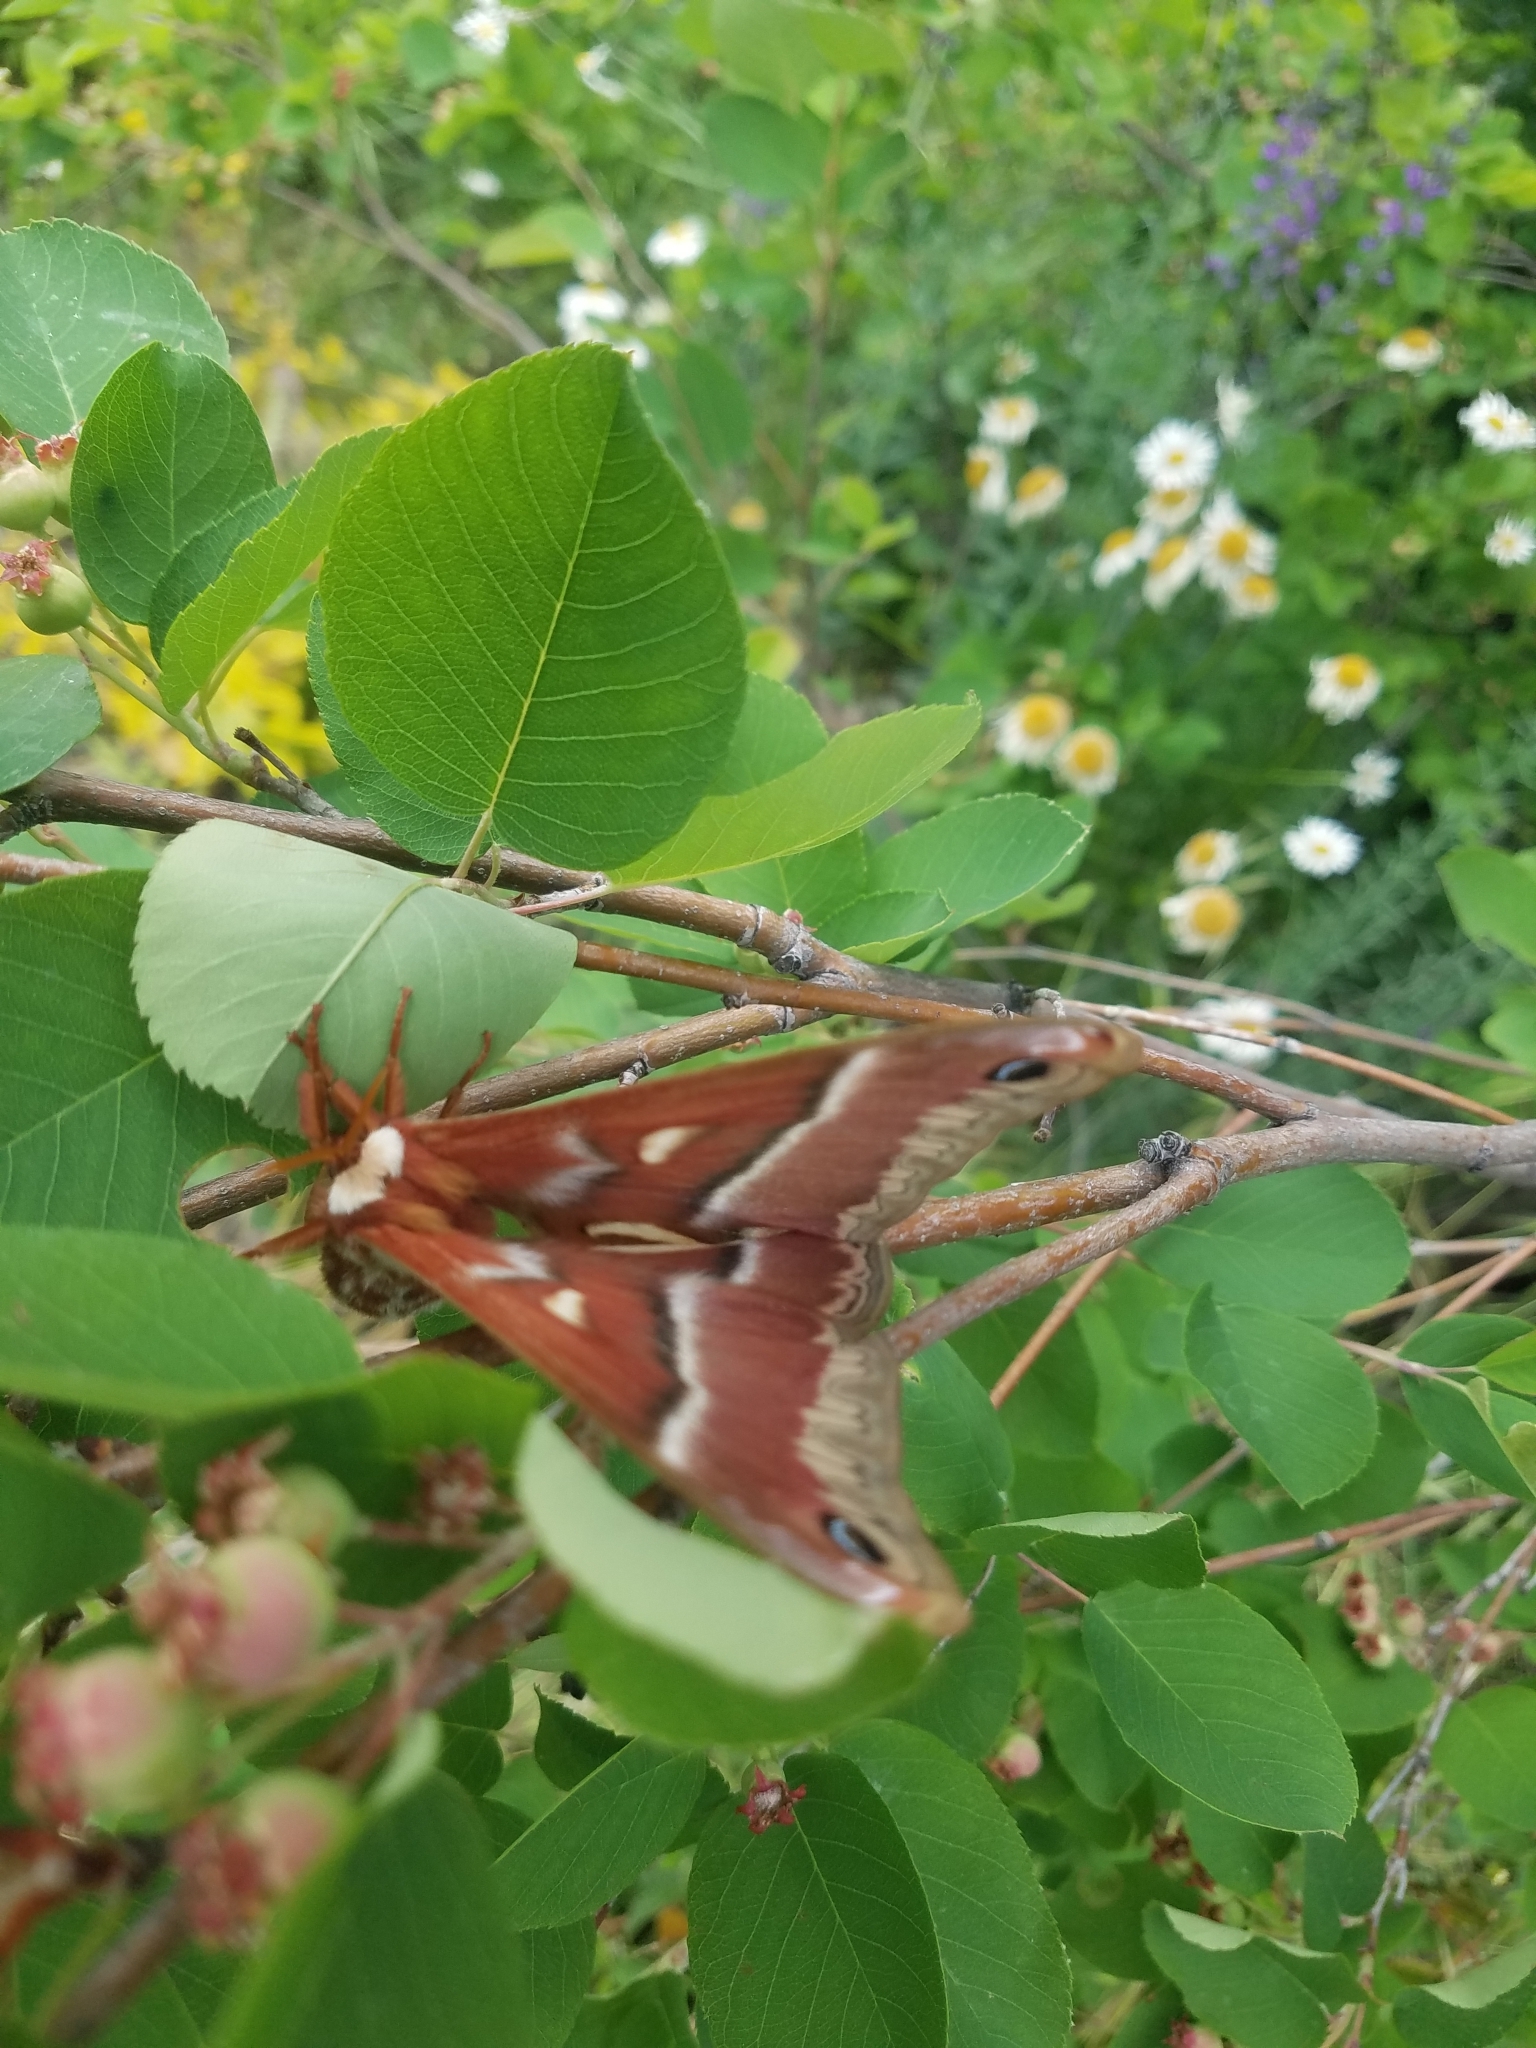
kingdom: Animalia
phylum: Arthropoda
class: Insecta
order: Lepidoptera
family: Saturniidae
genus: Hyalophora
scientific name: Hyalophora euryalus
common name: Ceanothus silkmoth
